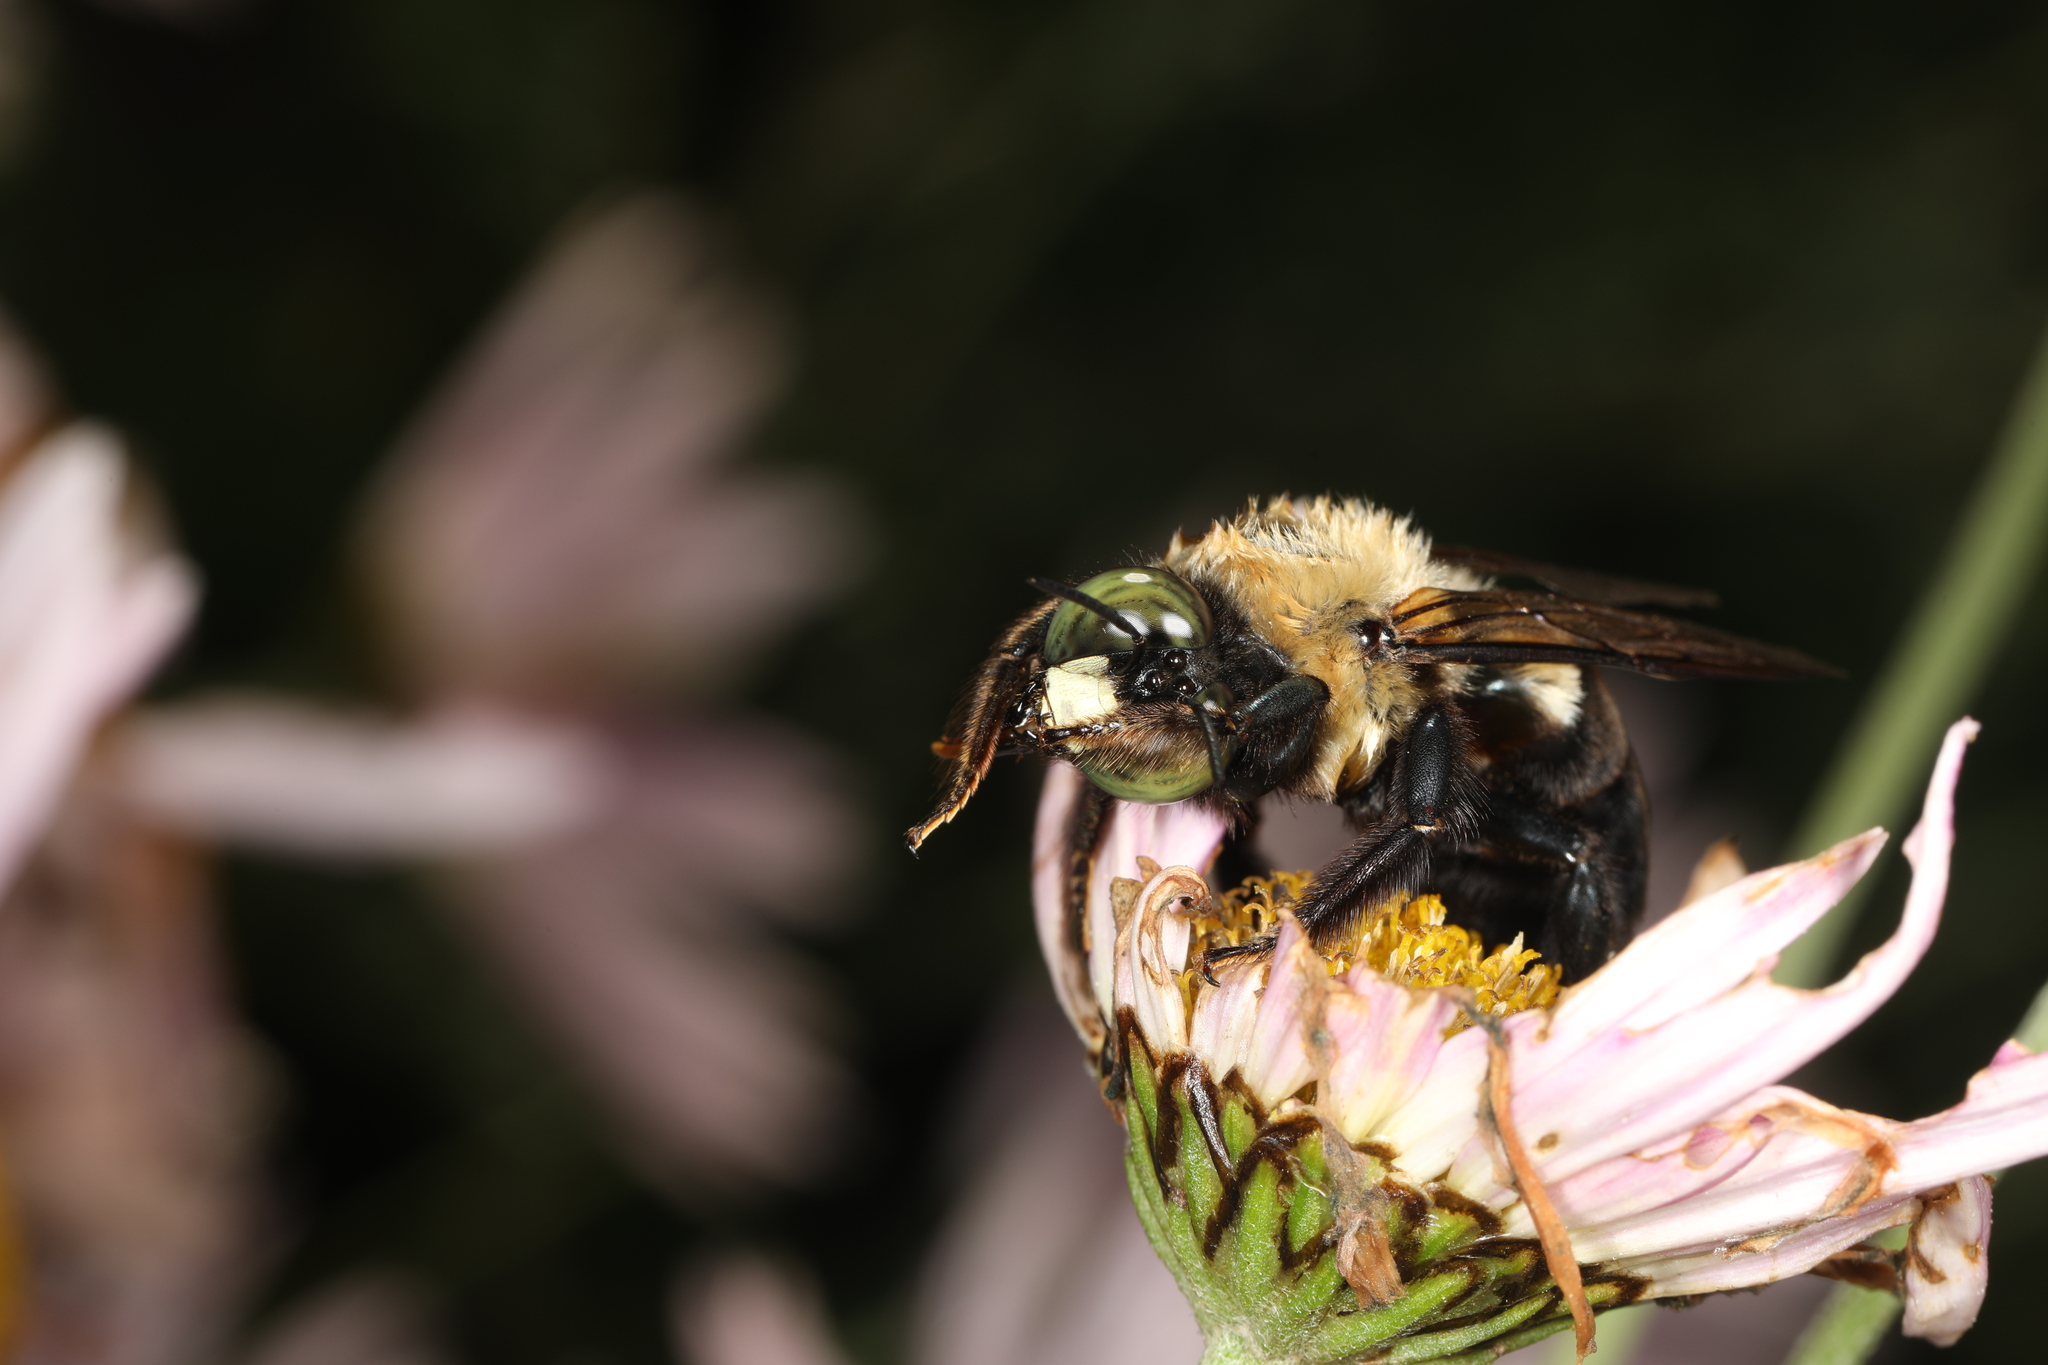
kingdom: Animalia
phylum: Arthropoda
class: Insecta
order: Hymenoptera
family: Apidae
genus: Xylocopa
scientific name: Xylocopa virginica
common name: Carpenter bee
